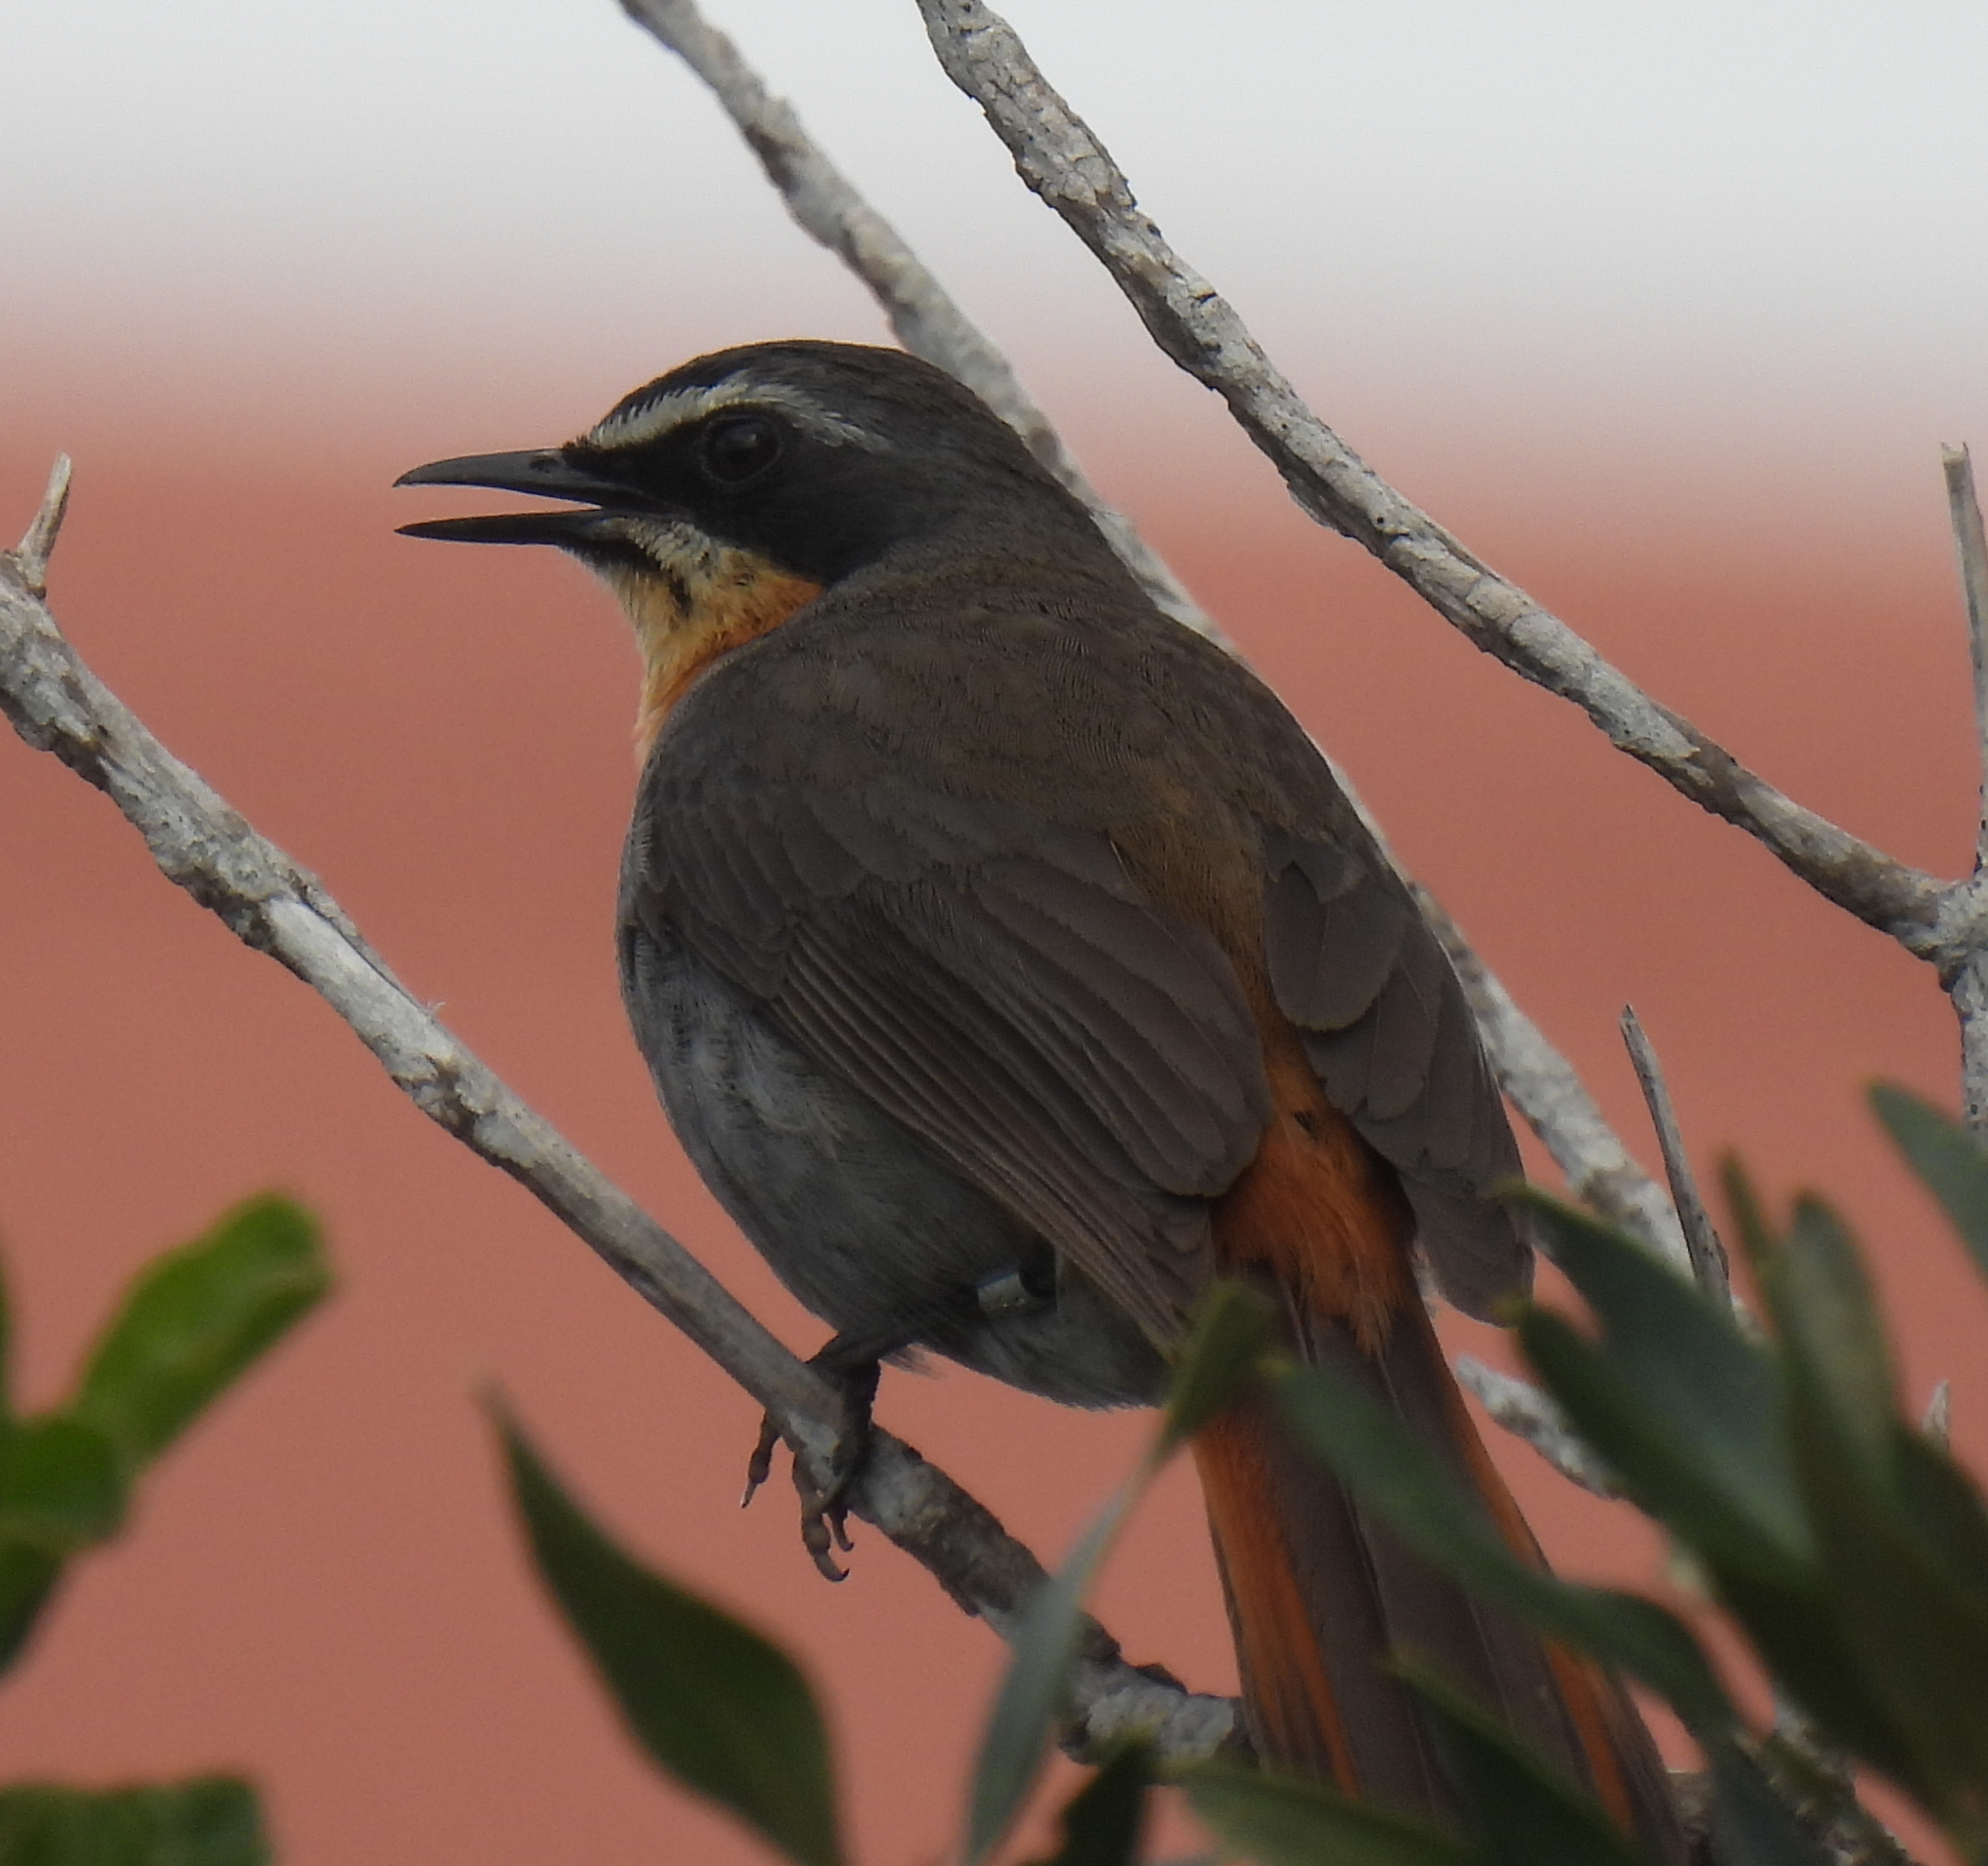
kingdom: Animalia
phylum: Chordata
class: Aves
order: Passeriformes
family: Muscicapidae
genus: Cossypha
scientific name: Cossypha caffra
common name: Cape robin-chat
